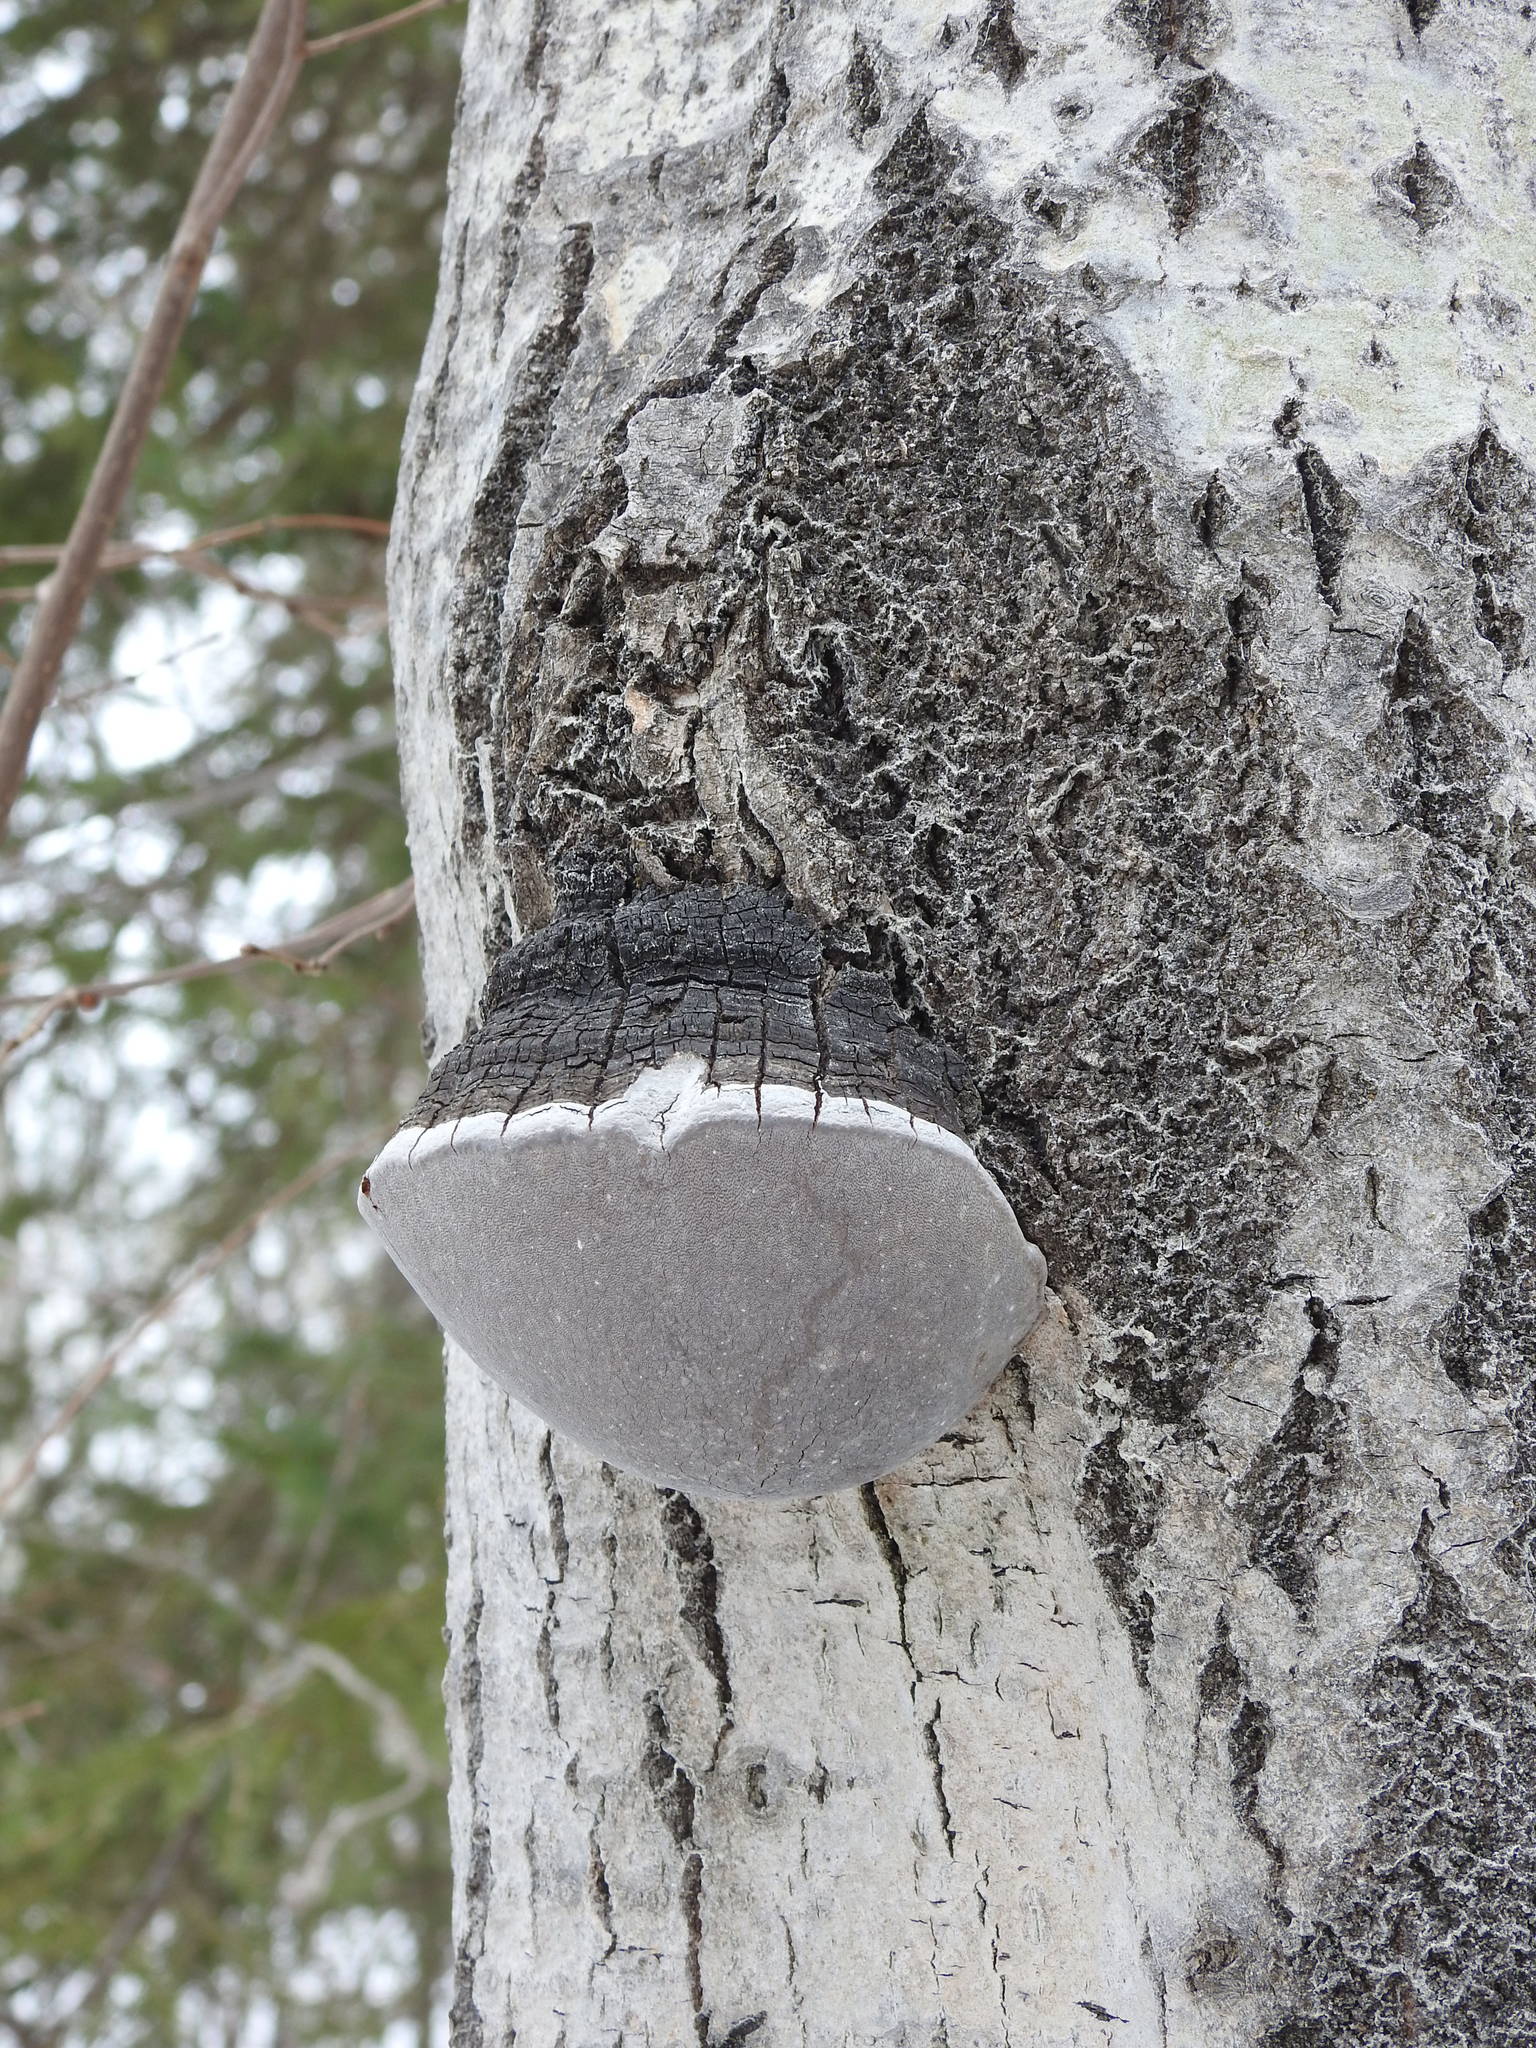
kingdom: Fungi
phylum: Basidiomycota
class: Agaricomycetes
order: Hymenochaetales
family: Hymenochaetaceae
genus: Phellinus
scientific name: Phellinus tremulae
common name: Aspen bracket
